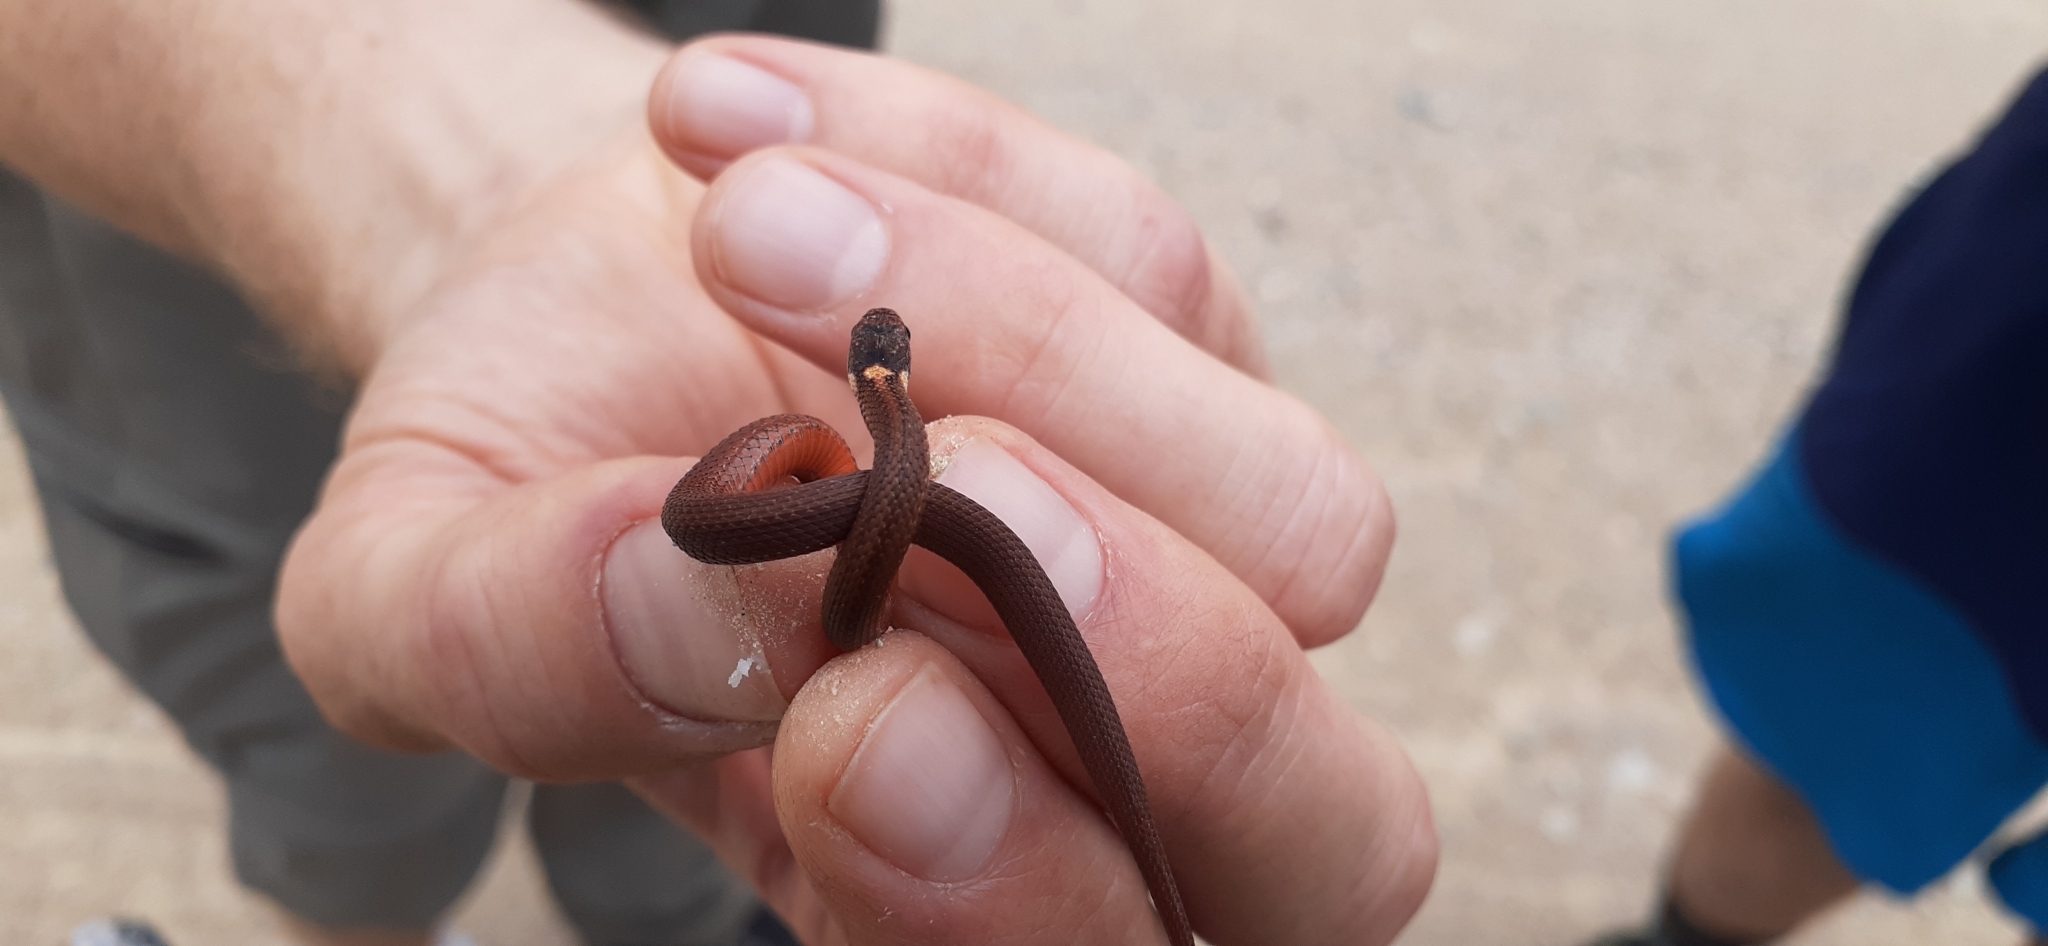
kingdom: Animalia
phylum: Chordata
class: Squamata
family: Colubridae
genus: Storeria
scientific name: Storeria occipitomaculata
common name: Redbelly snake
